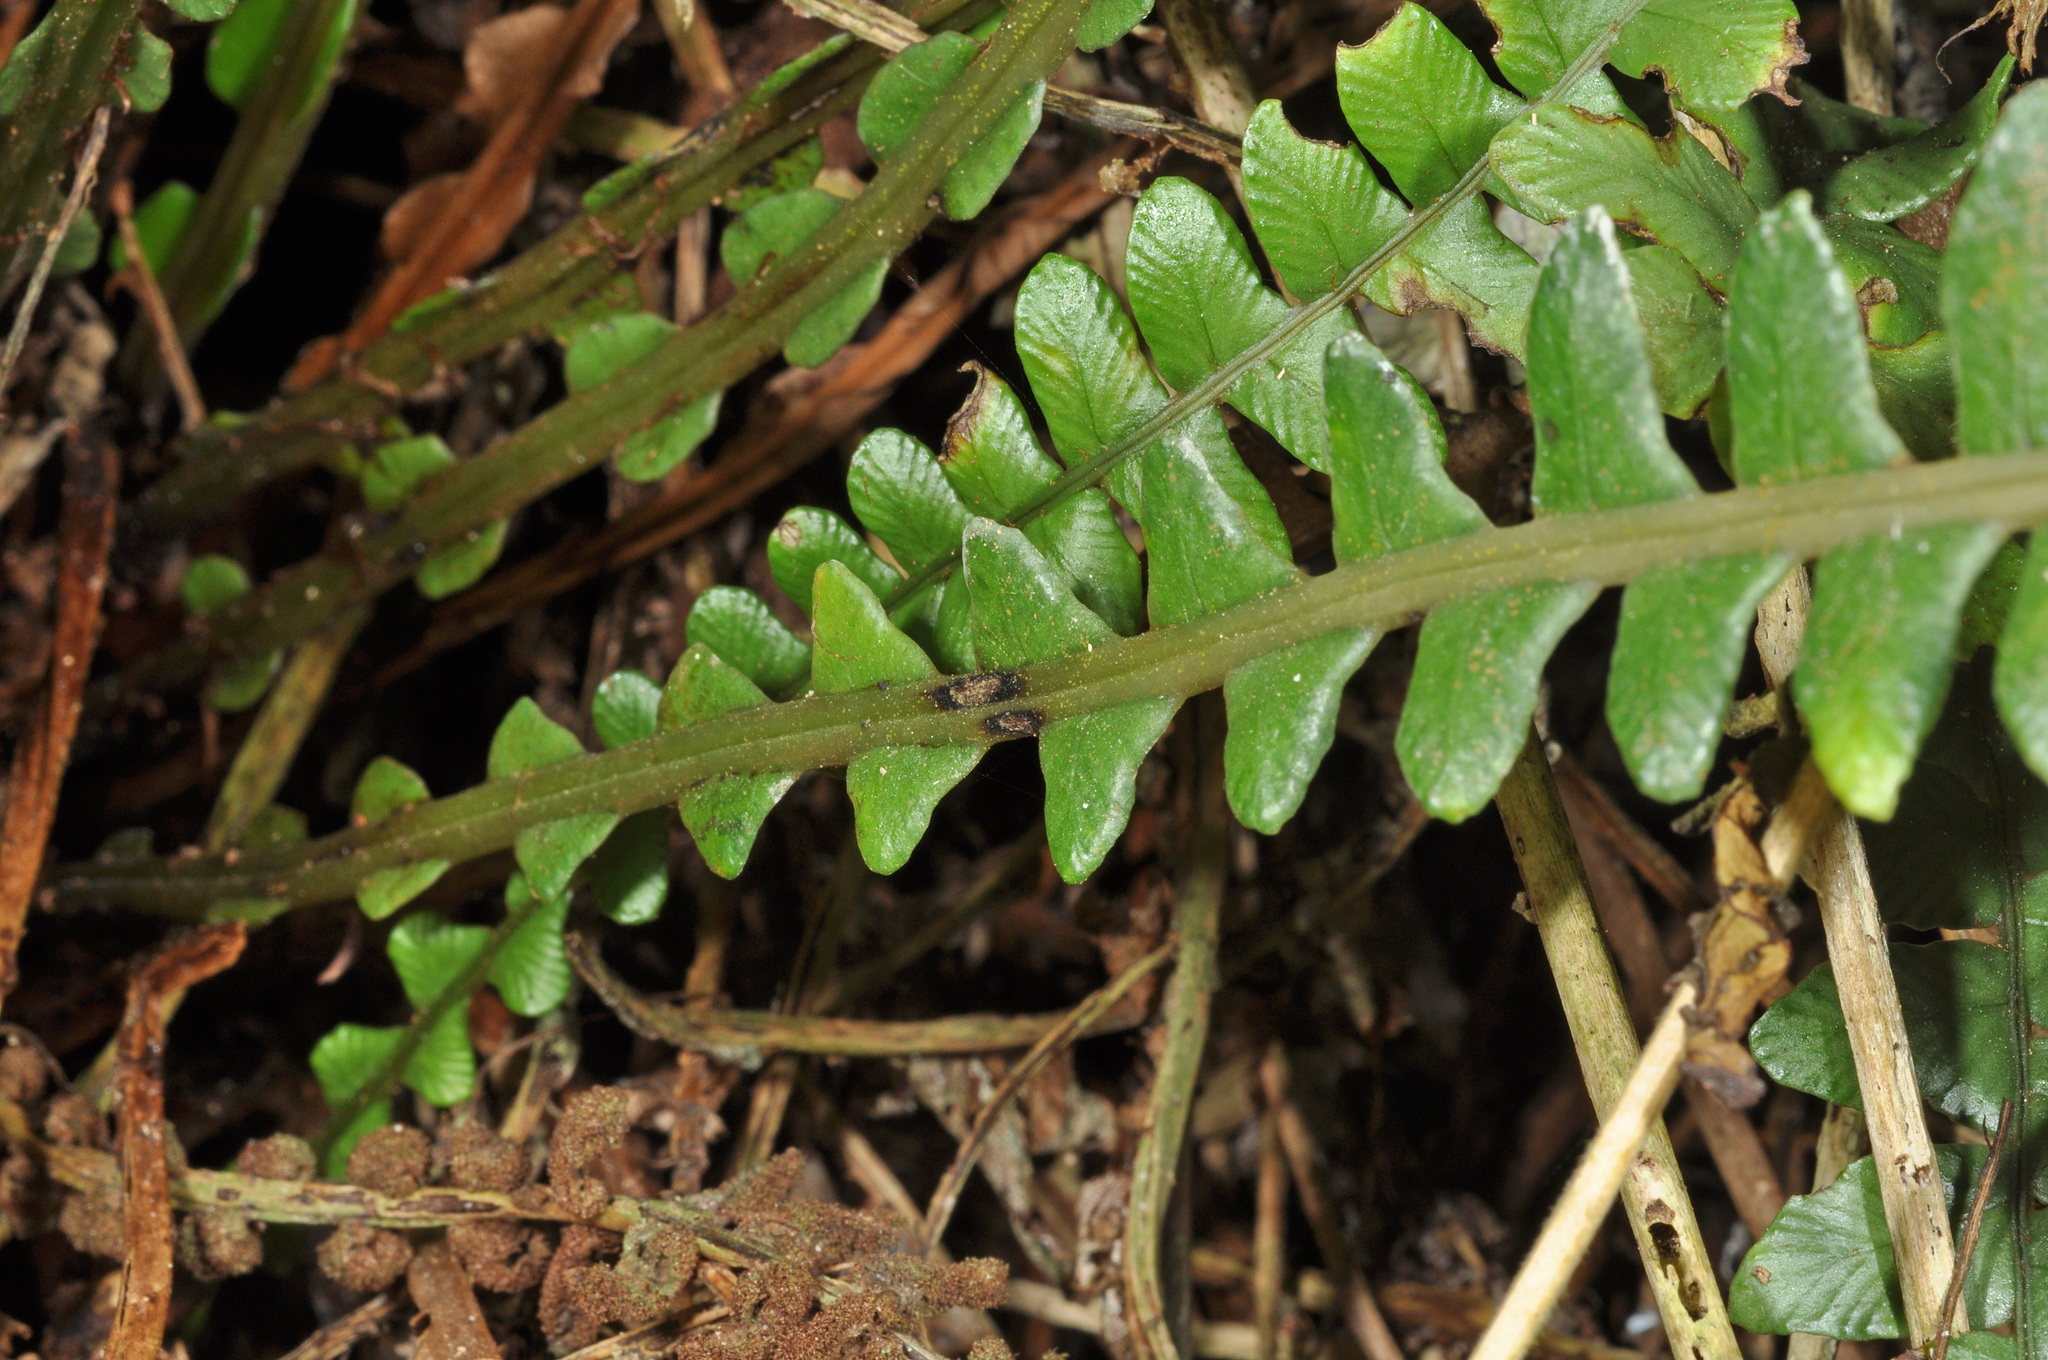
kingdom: Plantae
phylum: Tracheophyta
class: Polypodiopsida
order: Polypodiales
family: Blechnaceae
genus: Austroblechnum
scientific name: Austroblechnum durum
